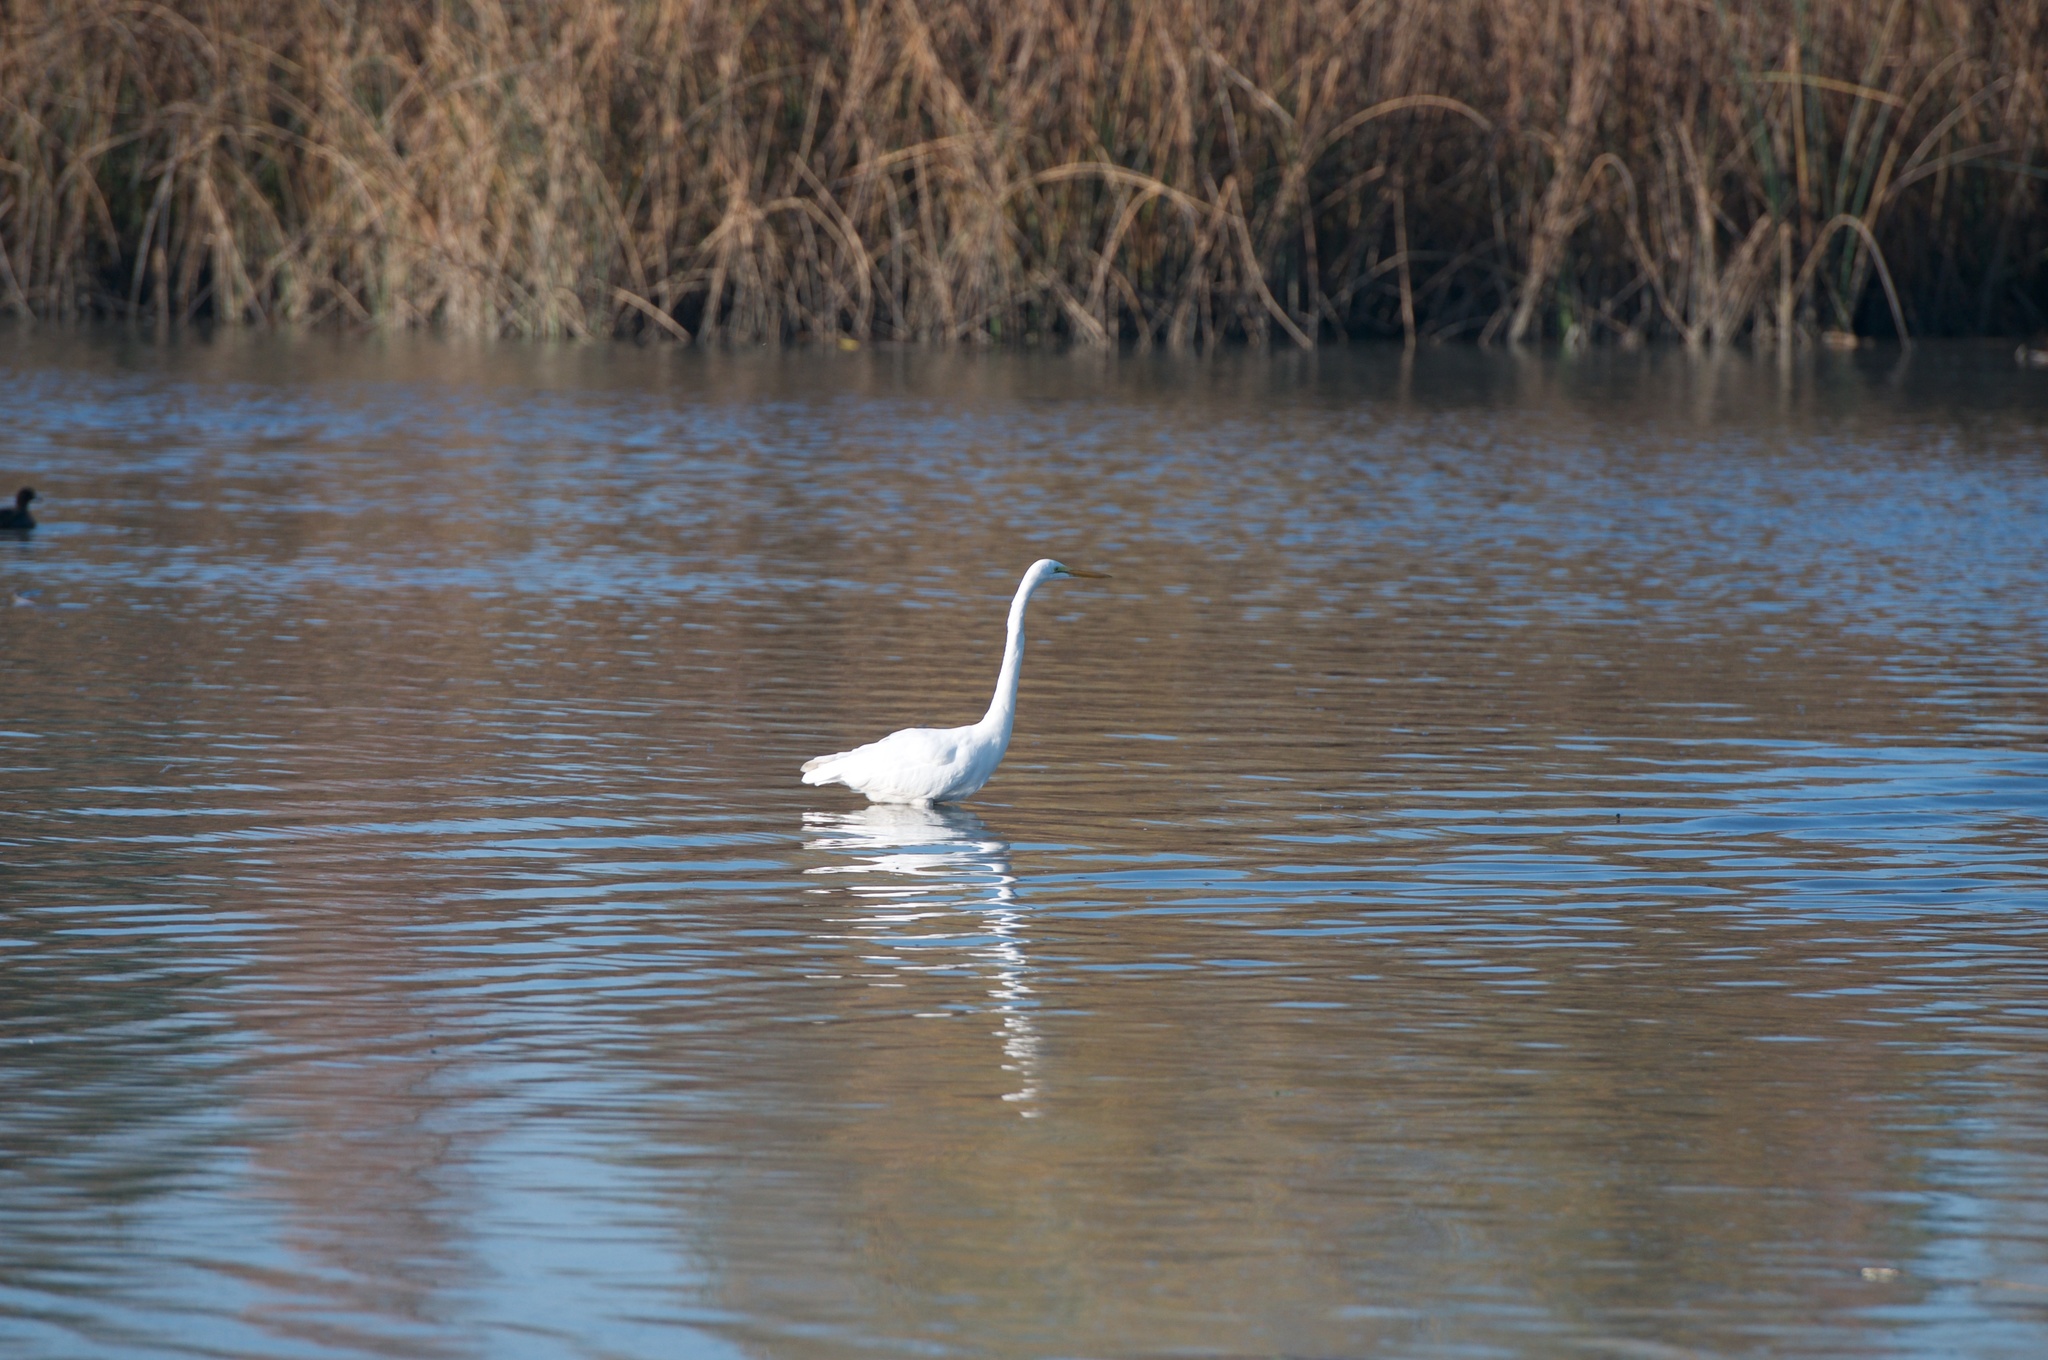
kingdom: Animalia
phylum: Chordata
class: Aves
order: Pelecaniformes
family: Ardeidae
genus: Ardea
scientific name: Ardea alba
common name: Great egret
